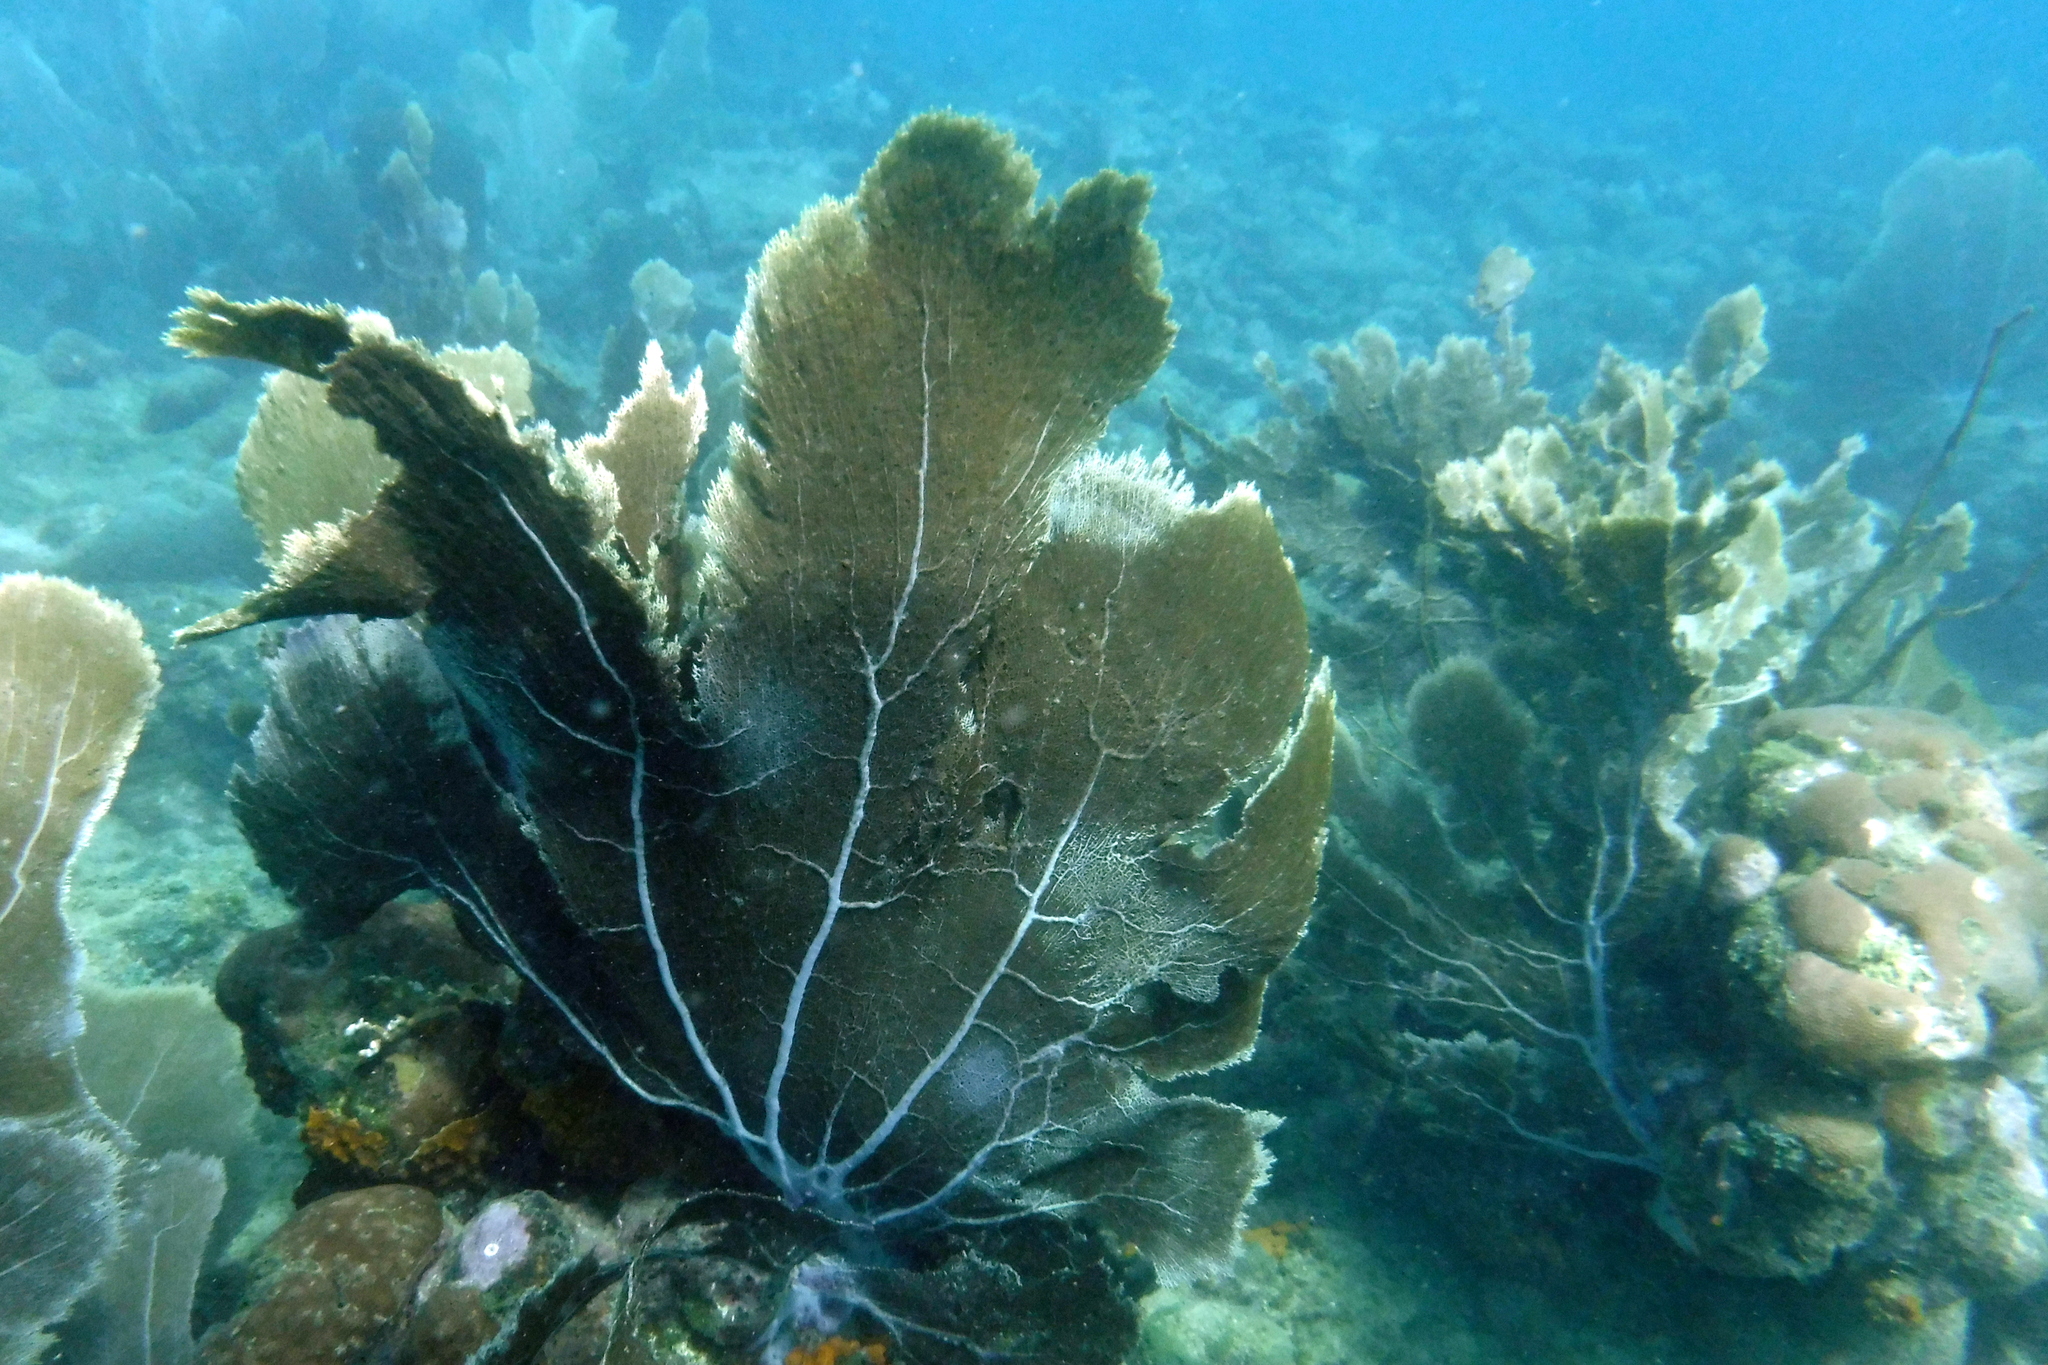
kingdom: Animalia
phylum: Cnidaria
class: Anthozoa
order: Malacalcyonacea
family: Gorgoniidae
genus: Gorgonia
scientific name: Gorgonia ventalina
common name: Common sea fan
